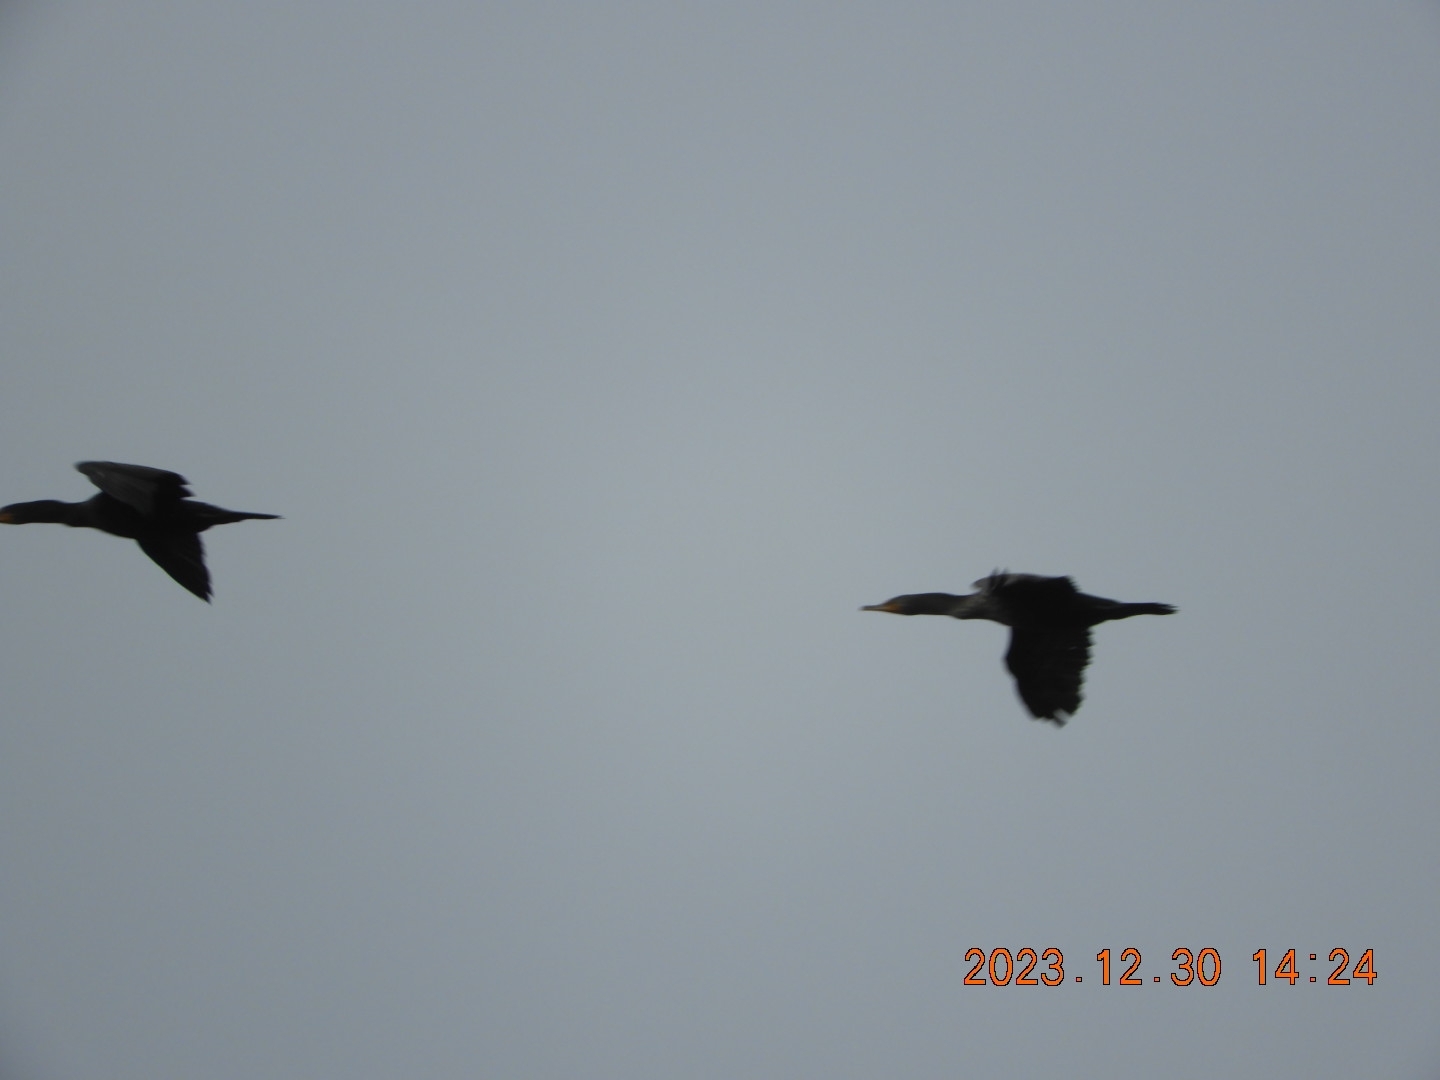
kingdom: Animalia
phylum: Chordata
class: Aves
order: Suliformes
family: Phalacrocoracidae
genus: Phalacrocorax
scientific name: Phalacrocorax auritus
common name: Double-crested cormorant
